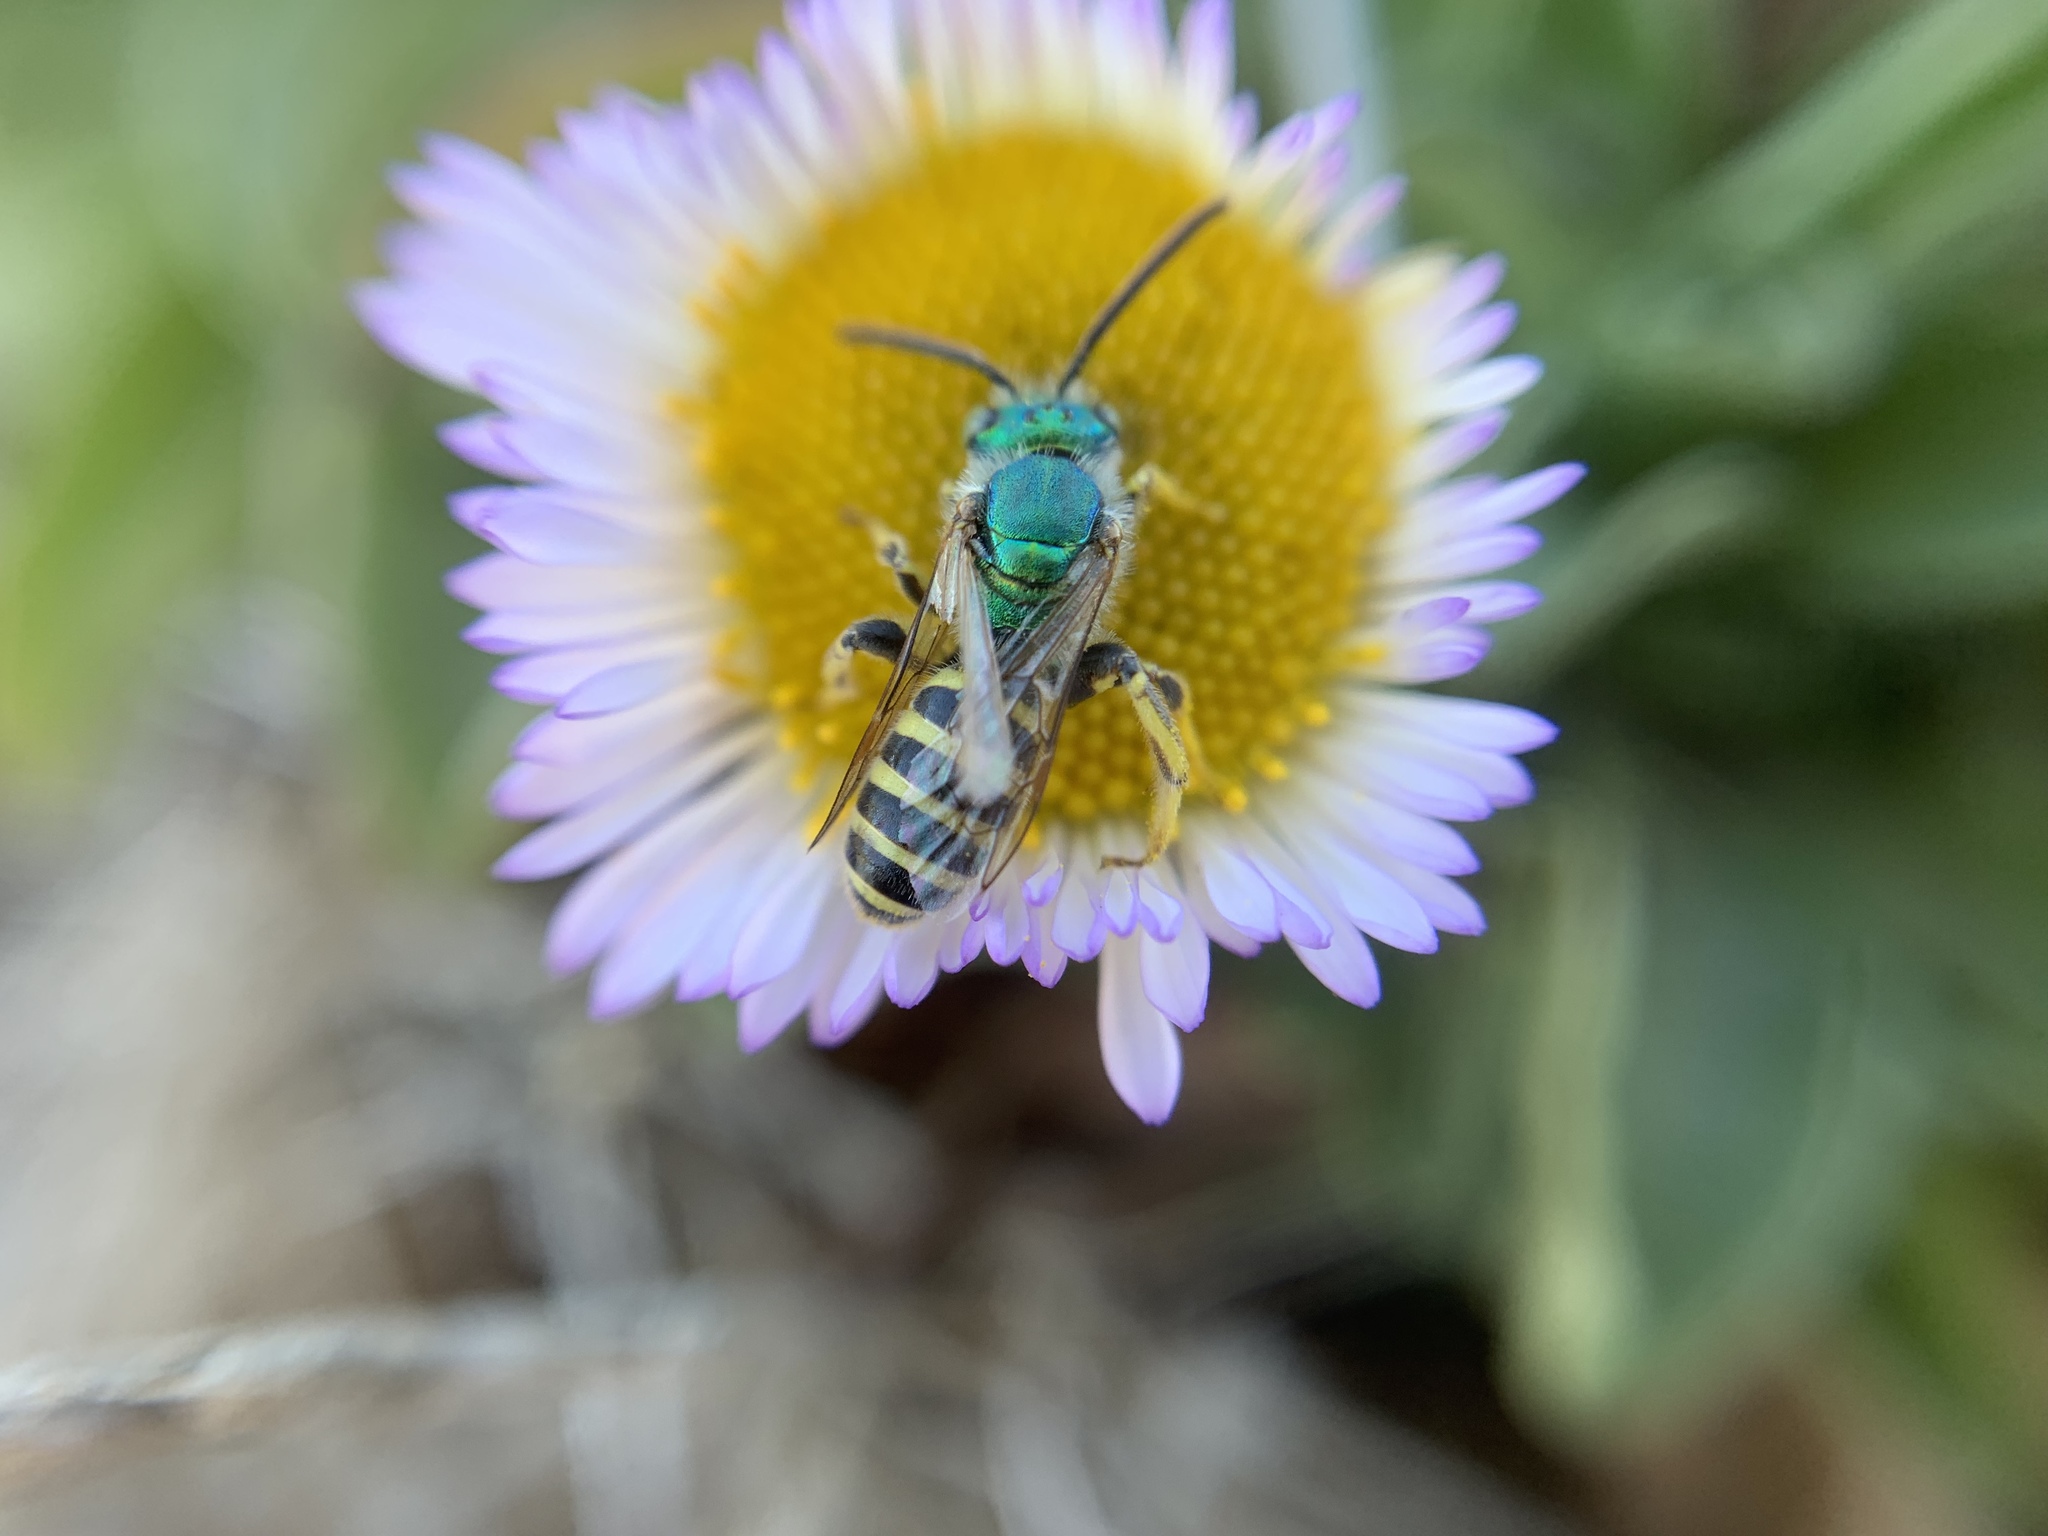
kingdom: Animalia
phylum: Arthropoda
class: Insecta
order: Hymenoptera
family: Halictidae
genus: Agapostemon
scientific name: Agapostemon texanus
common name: Texas striped sweat bee
